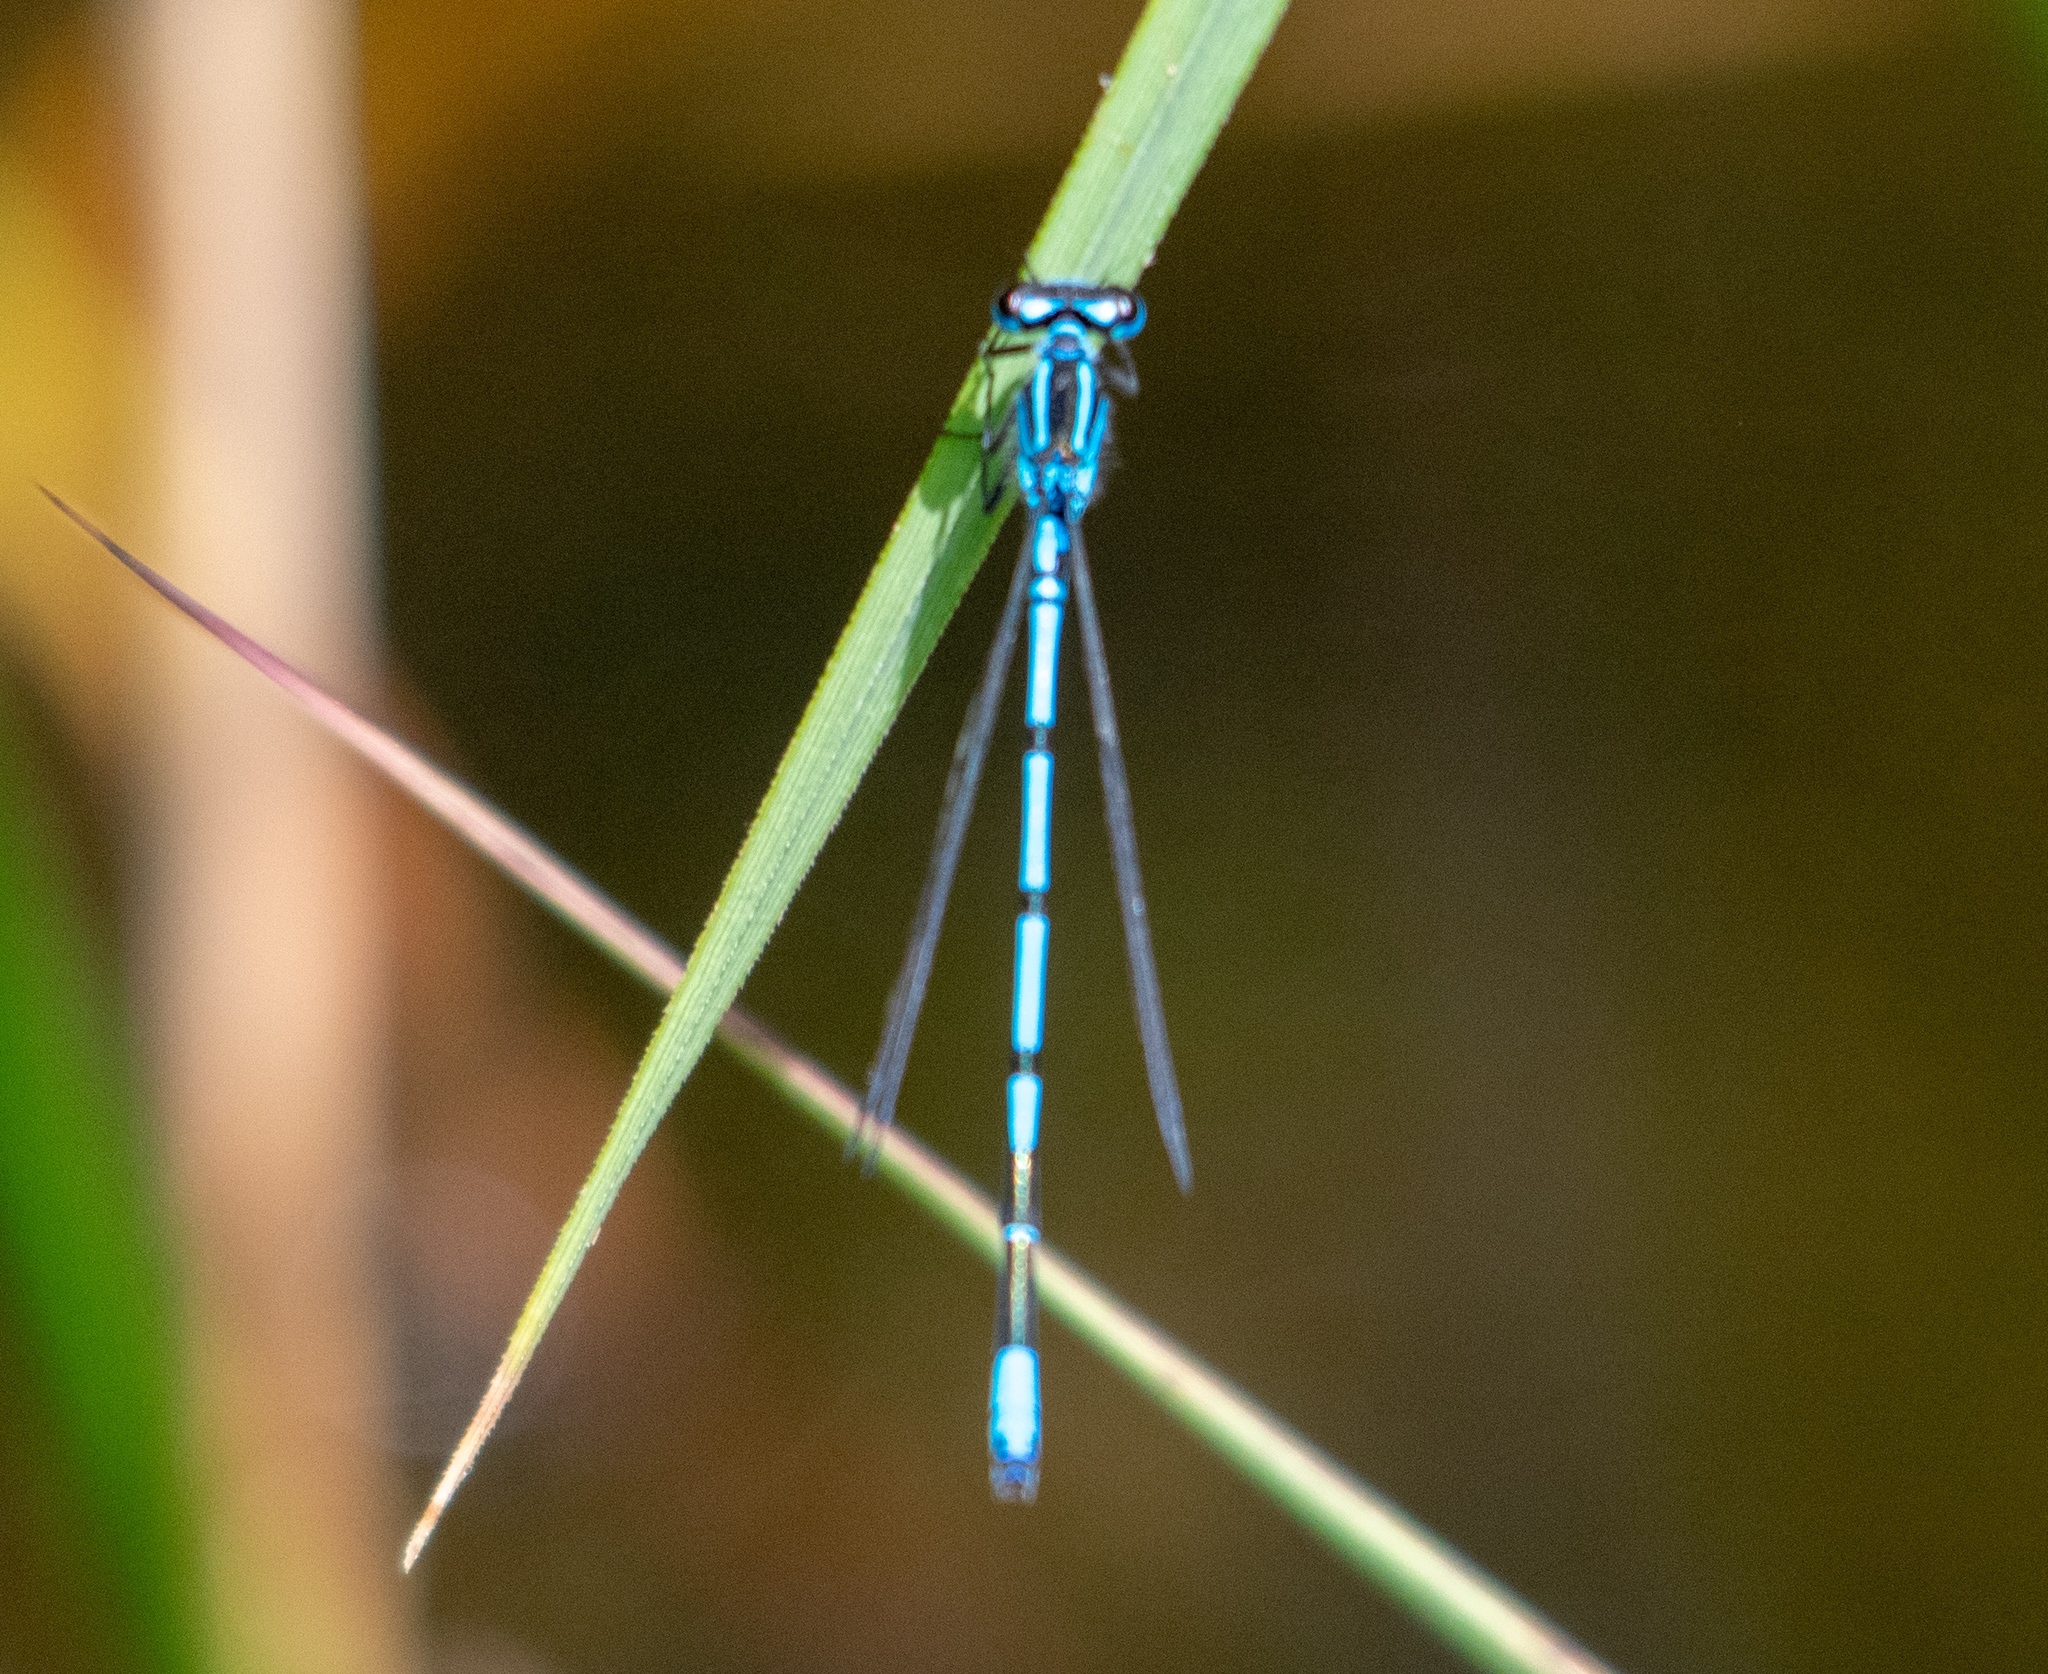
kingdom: Animalia
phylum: Arthropoda
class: Insecta
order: Odonata
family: Coenagrionidae
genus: Coenagrion
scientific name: Coenagrion puella
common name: Azure damselfly
